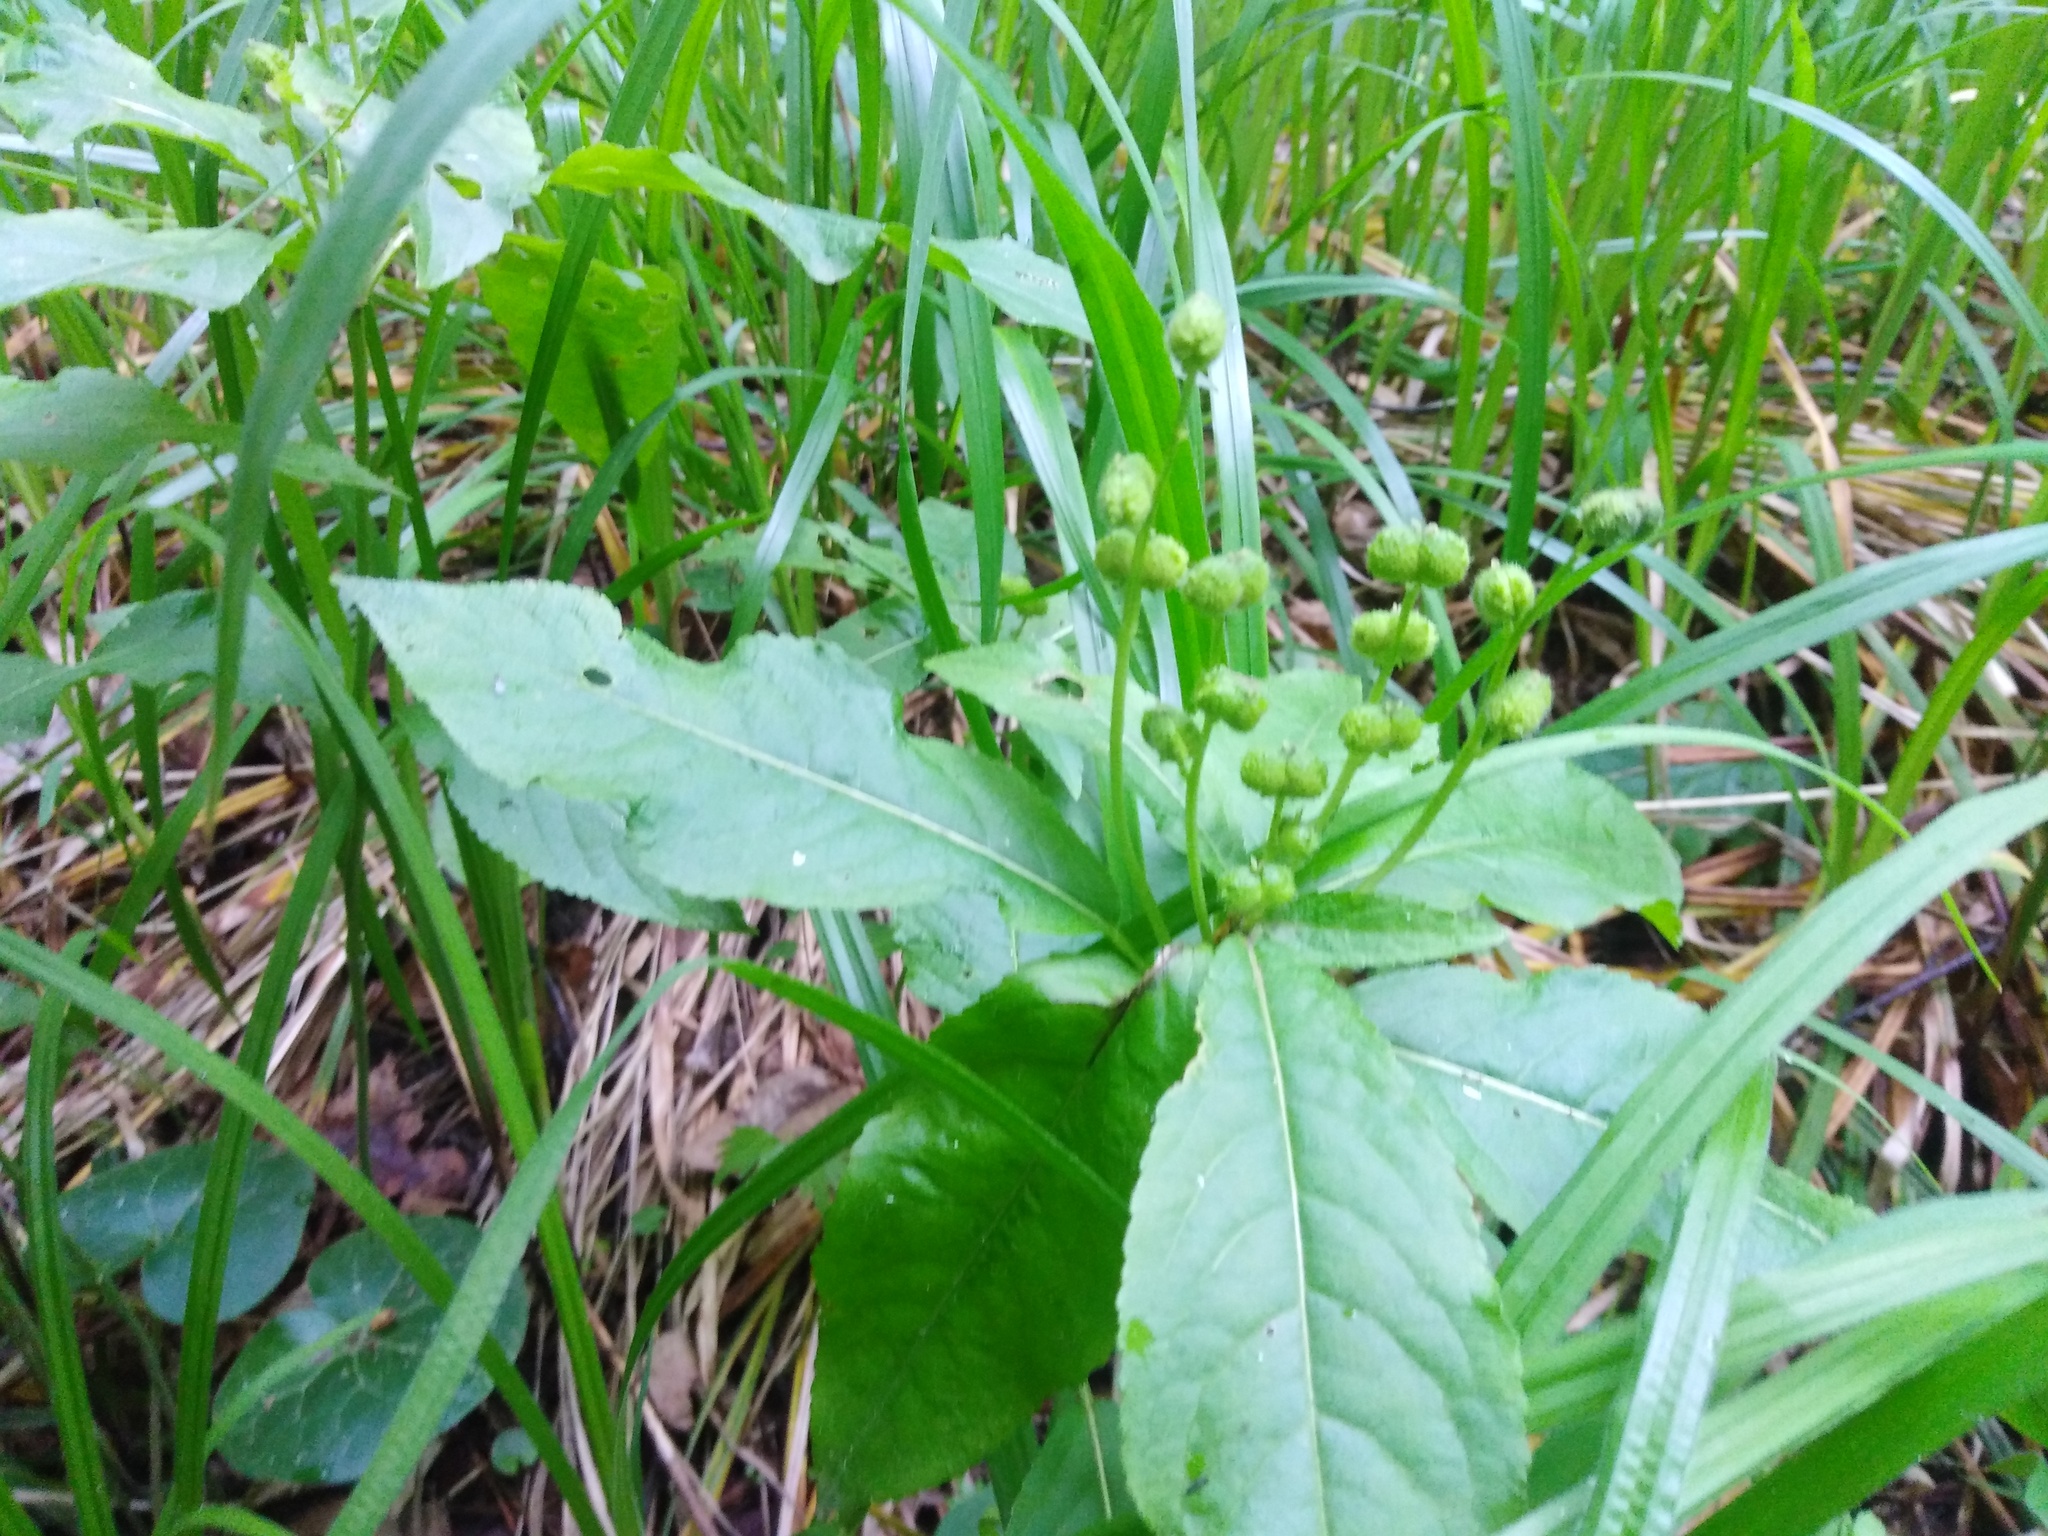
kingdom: Plantae
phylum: Tracheophyta
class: Magnoliopsida
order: Malpighiales
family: Euphorbiaceae
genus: Mercurialis
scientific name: Mercurialis perennis
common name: Dog mercury
